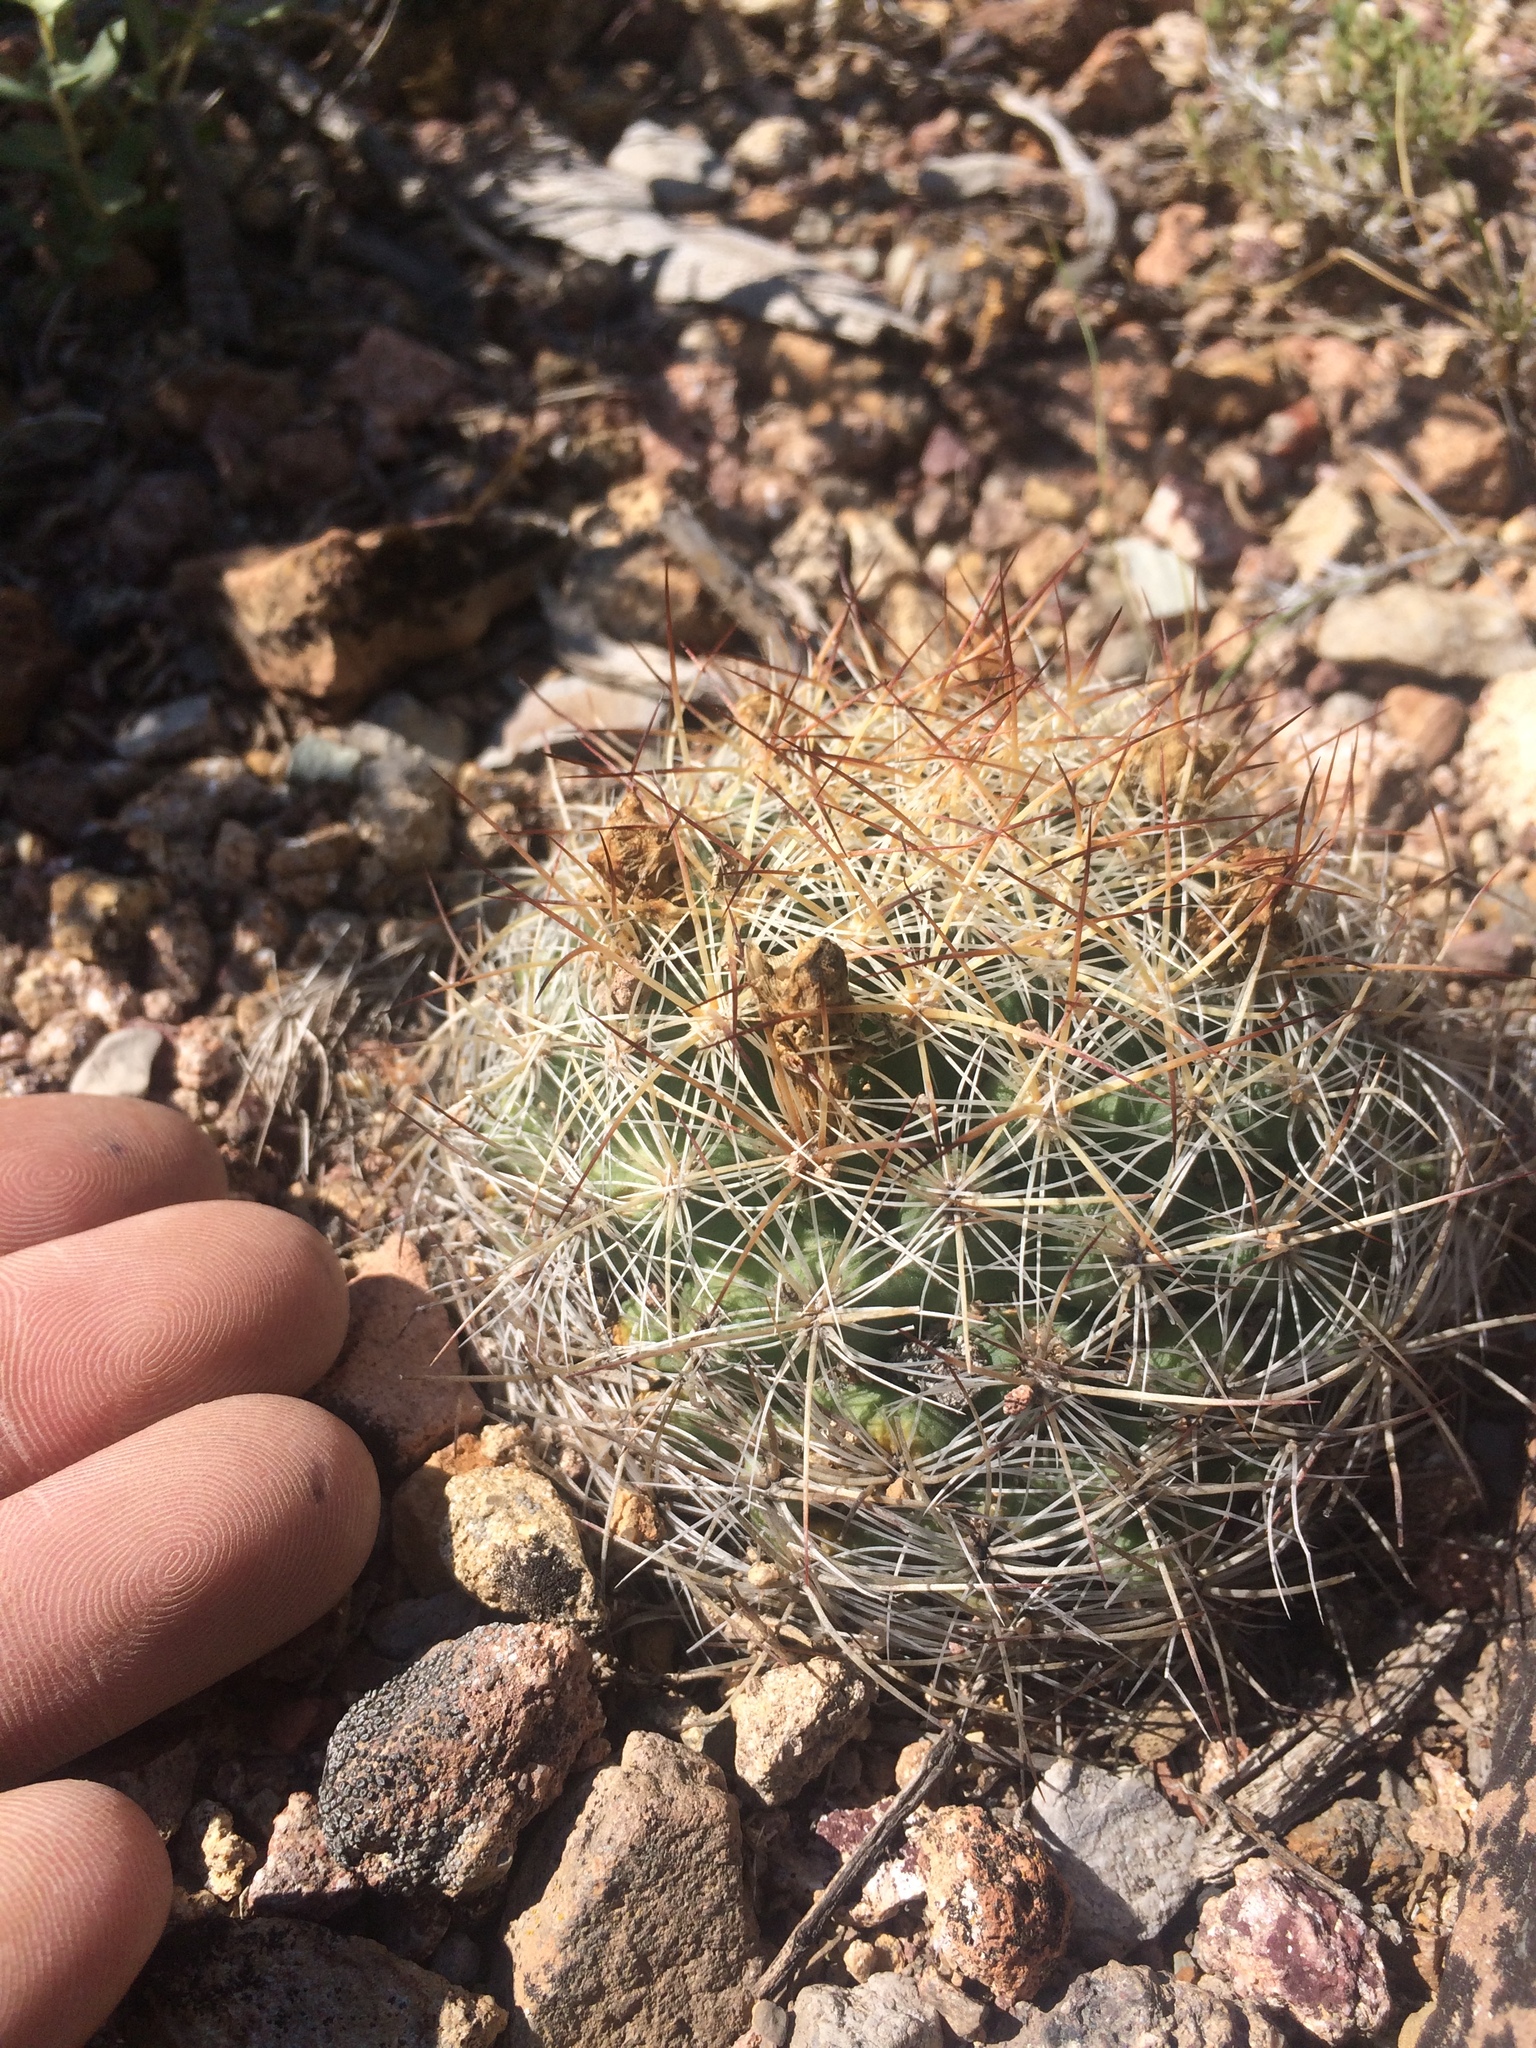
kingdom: Plantae
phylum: Tracheophyta
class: Magnoliopsida
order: Caryophyllales
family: Cactaceae
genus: Pediocactus
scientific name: Pediocactus simpsonii
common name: Simpson's hedgehog cactus
